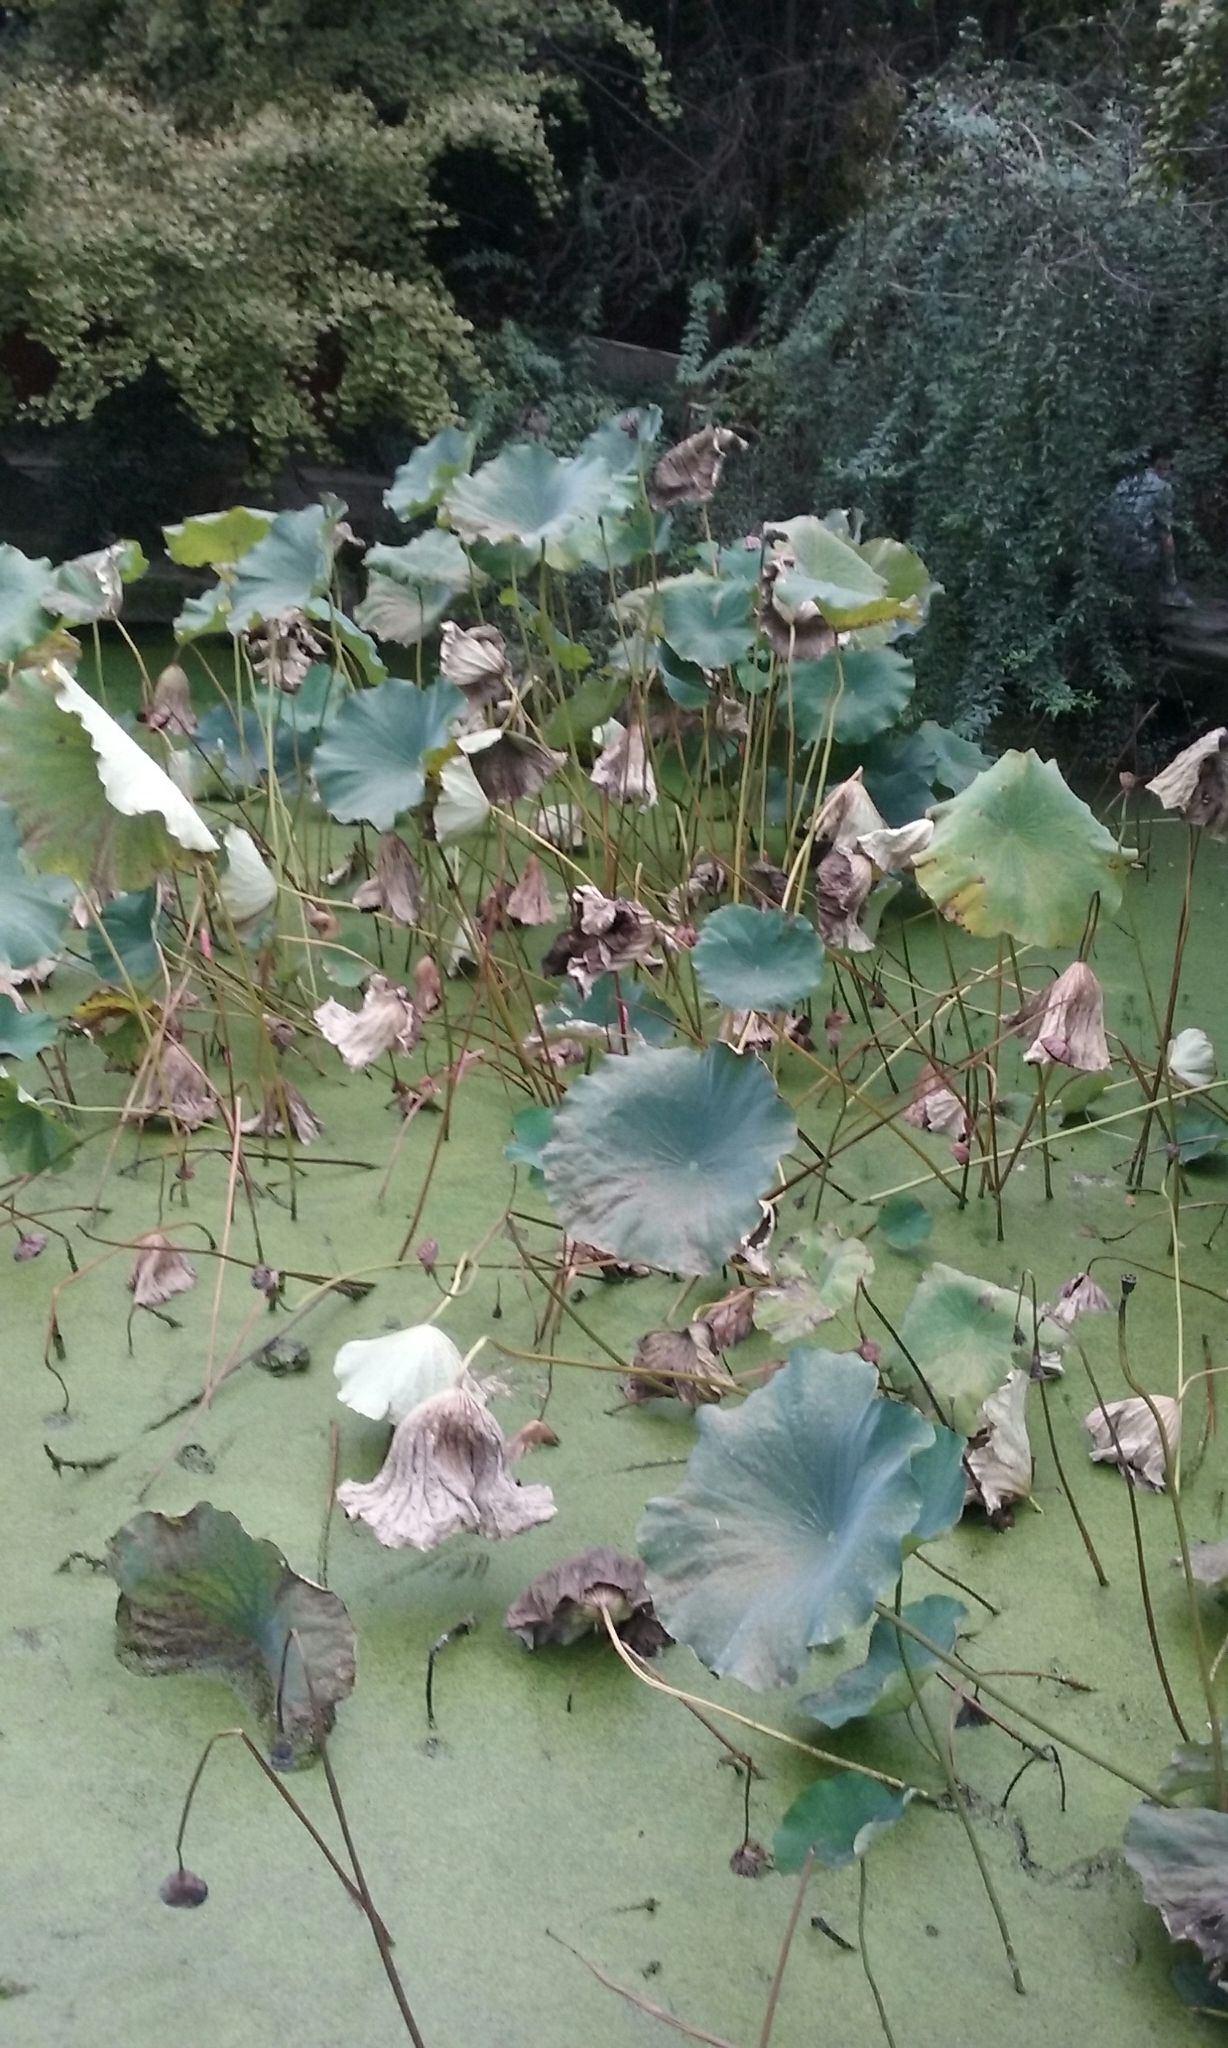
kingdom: Plantae
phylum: Tracheophyta
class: Magnoliopsida
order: Proteales
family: Nelumbonaceae
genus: Nelumbo
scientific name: Nelumbo nucifera
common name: Sacred lotus
